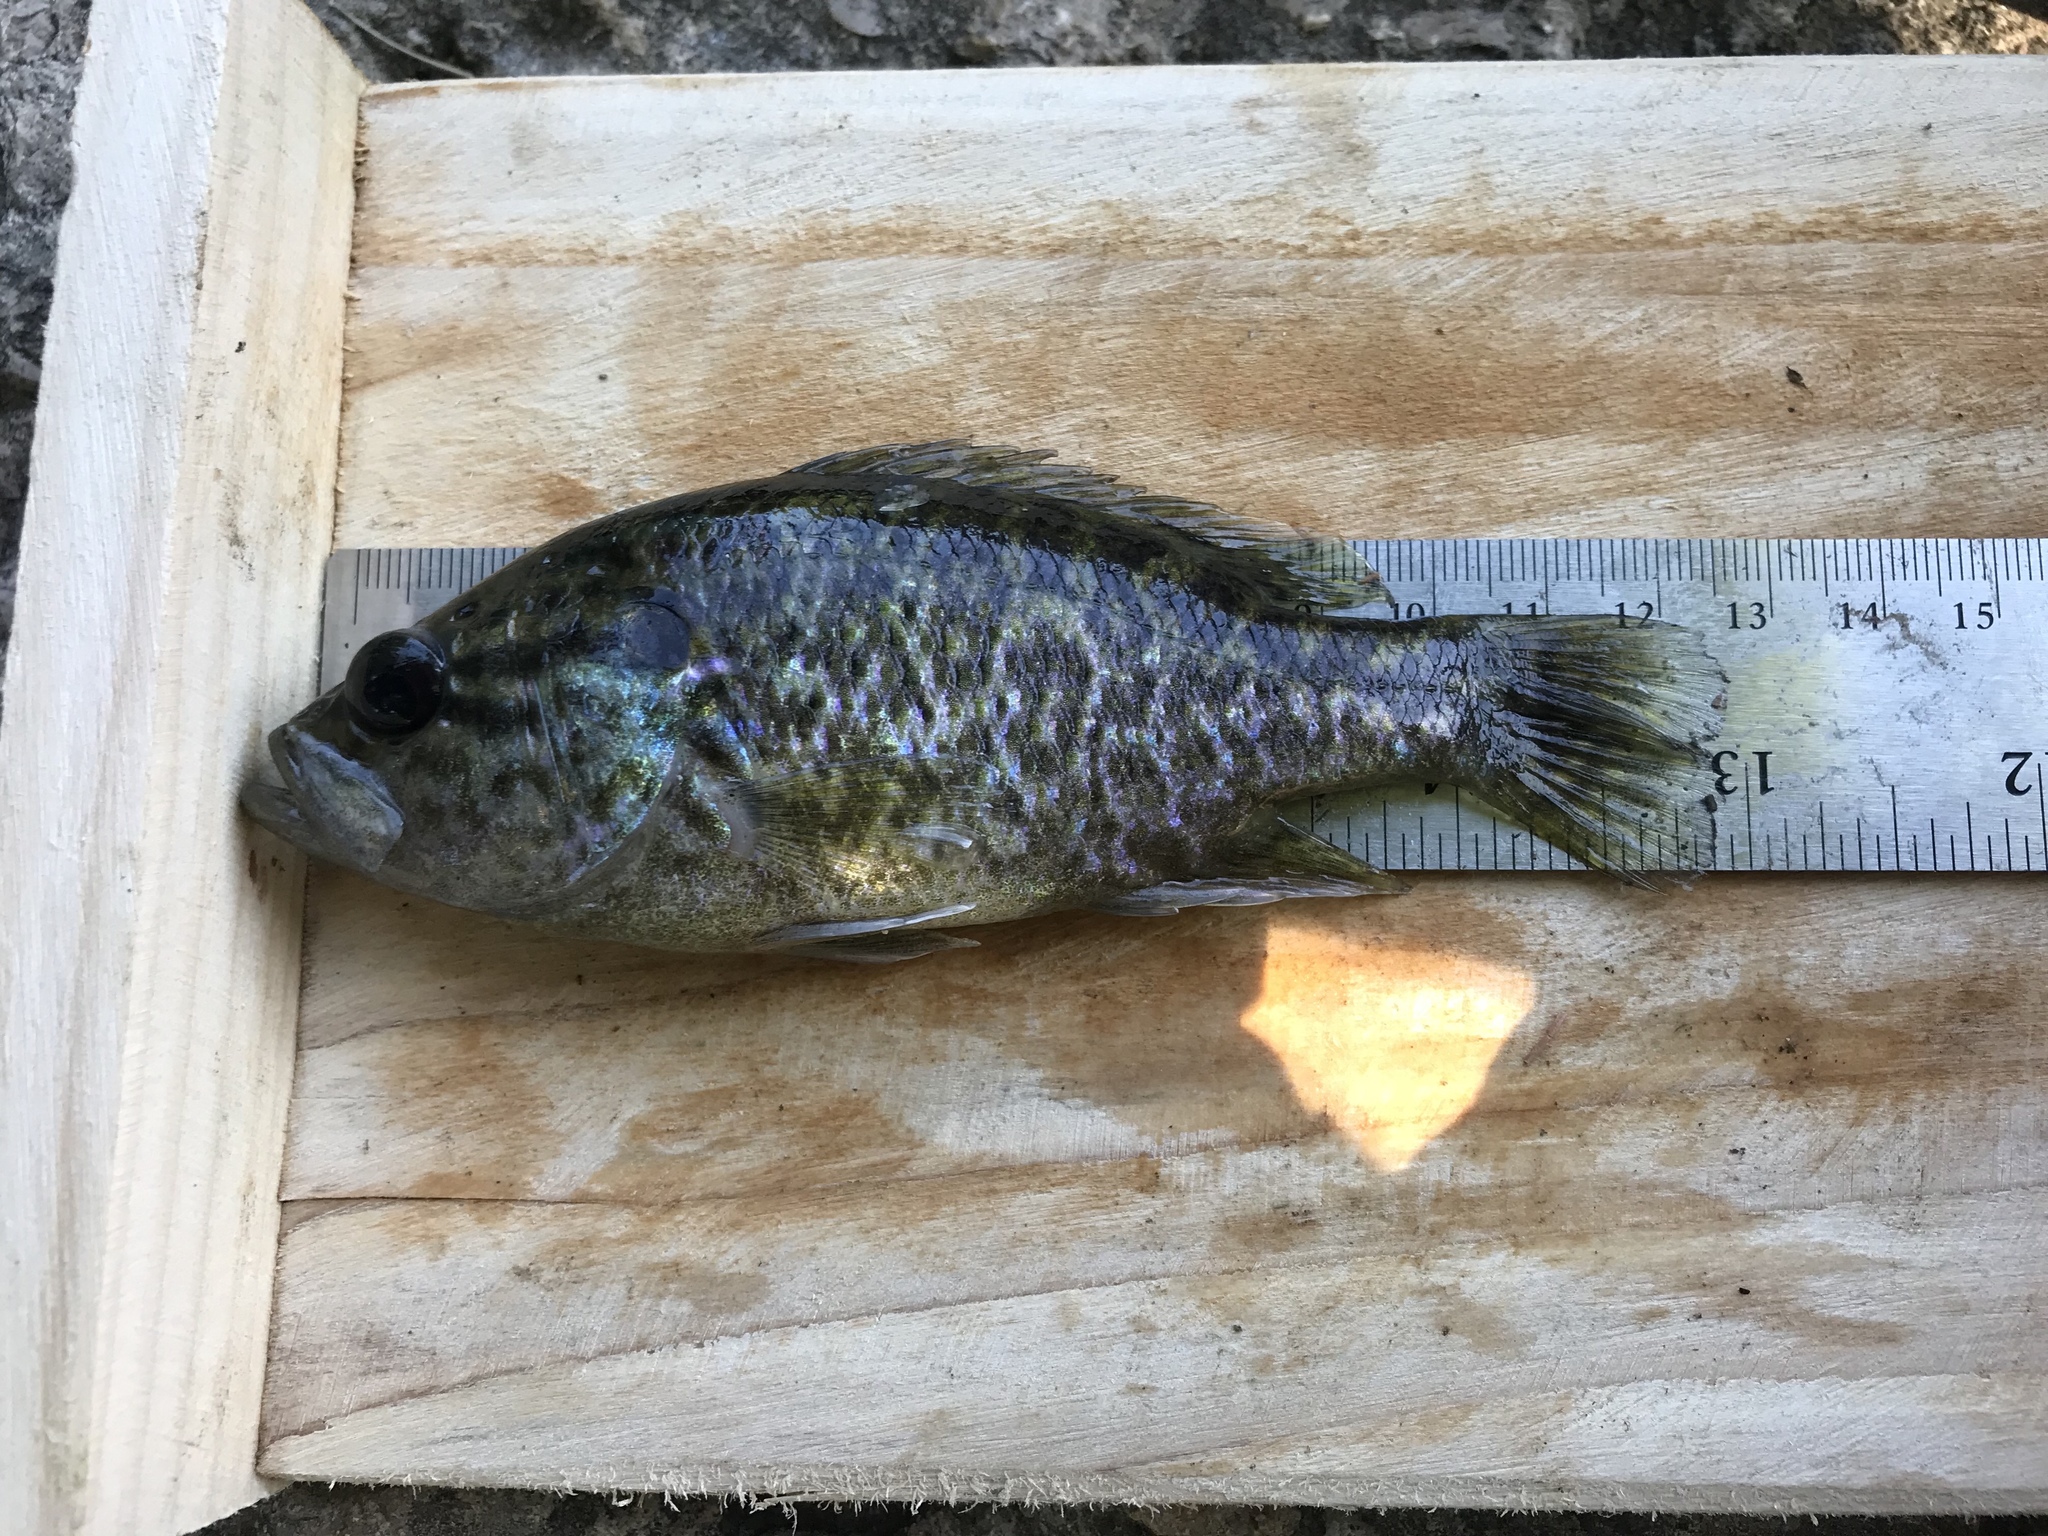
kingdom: Animalia
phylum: Chordata
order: Perciformes
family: Centrarchidae
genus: Lepomis
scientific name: Lepomis gulosus
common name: Warmouth
